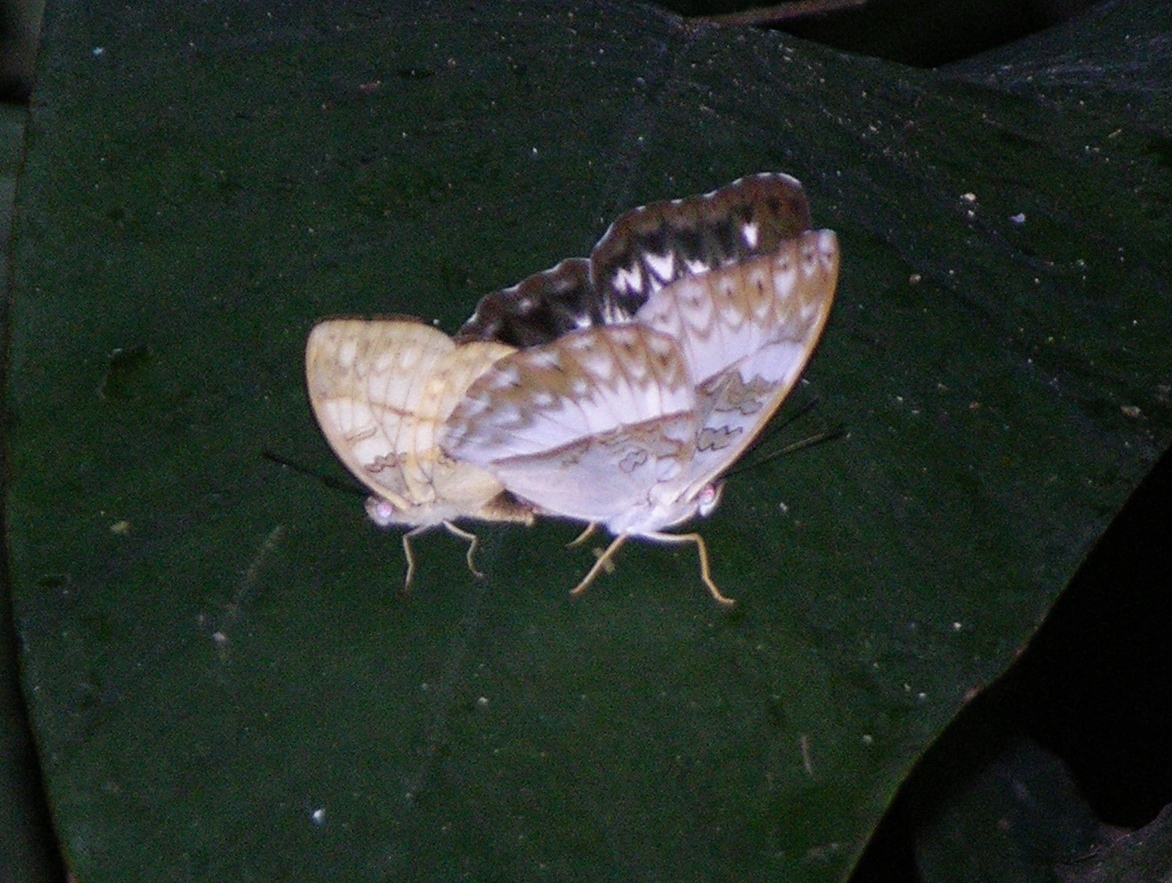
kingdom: Animalia
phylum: Arthropoda
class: Insecta
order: Lepidoptera
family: Nymphalidae
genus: Cymothoe
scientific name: Cymothoe jodutta
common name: Jodutta glider
